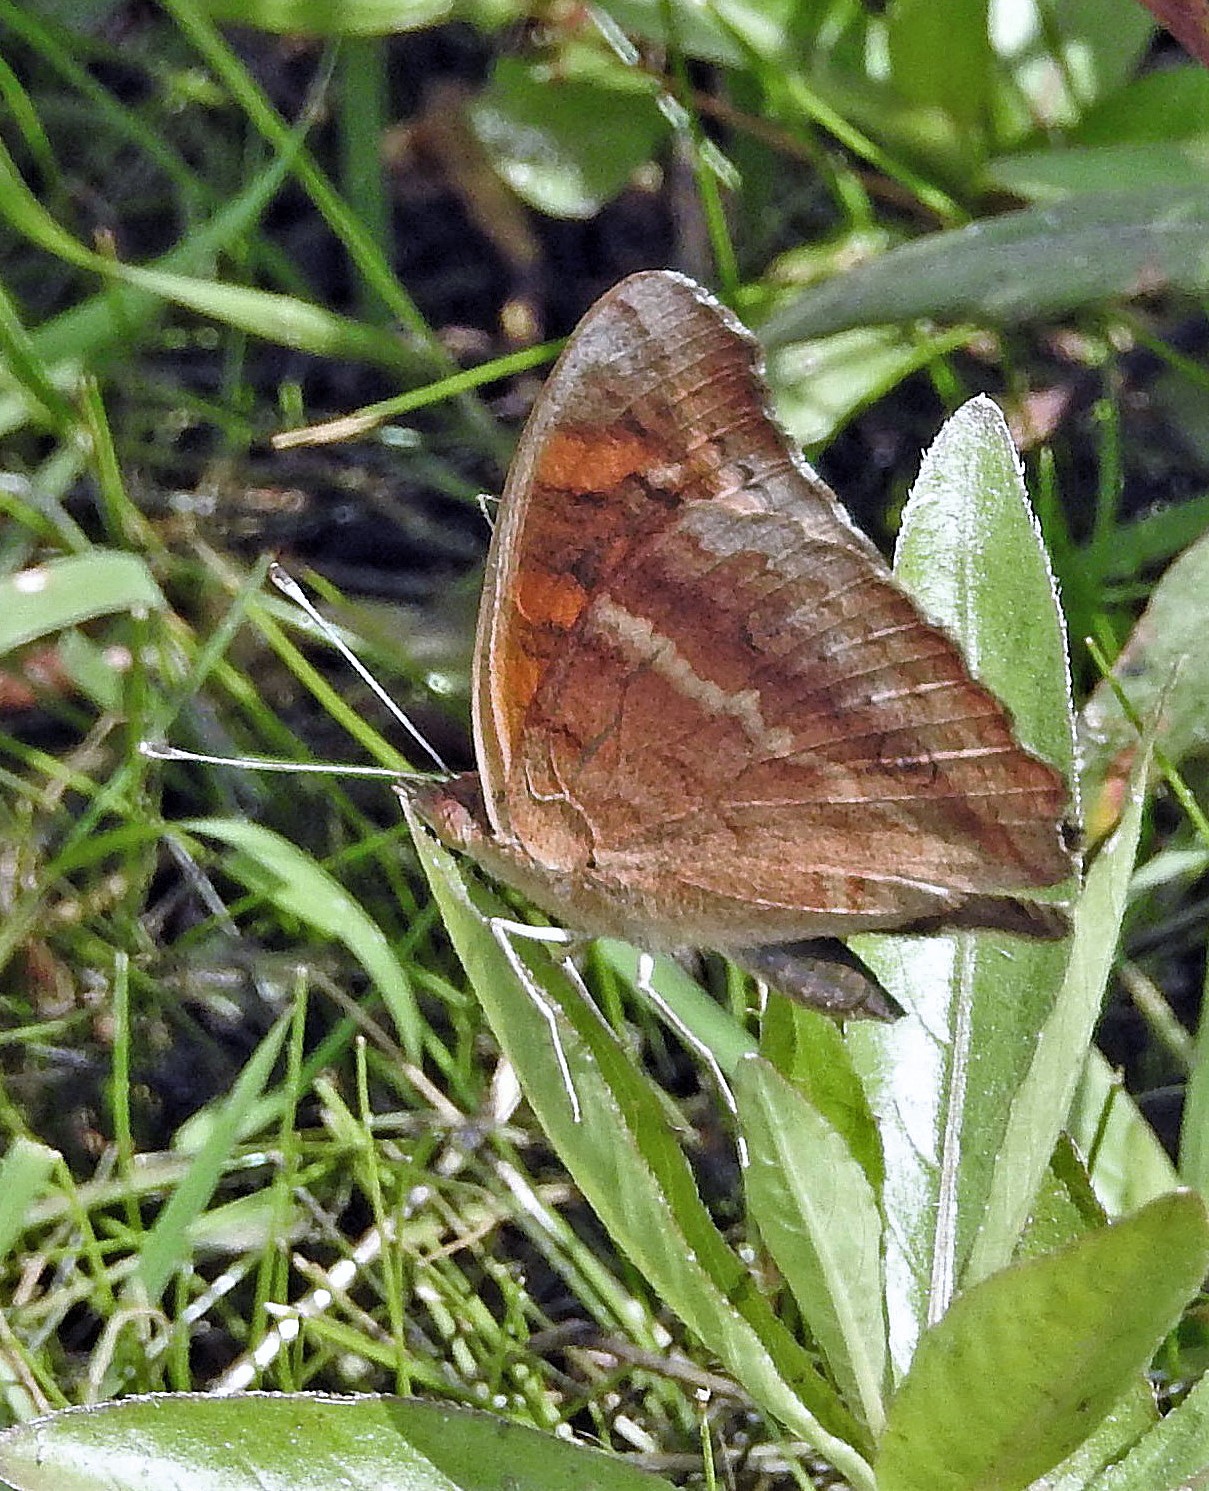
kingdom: Animalia
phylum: Arthropoda
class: Insecta
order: Lepidoptera
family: Nymphalidae
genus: Junonia
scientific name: Junonia lavinia
